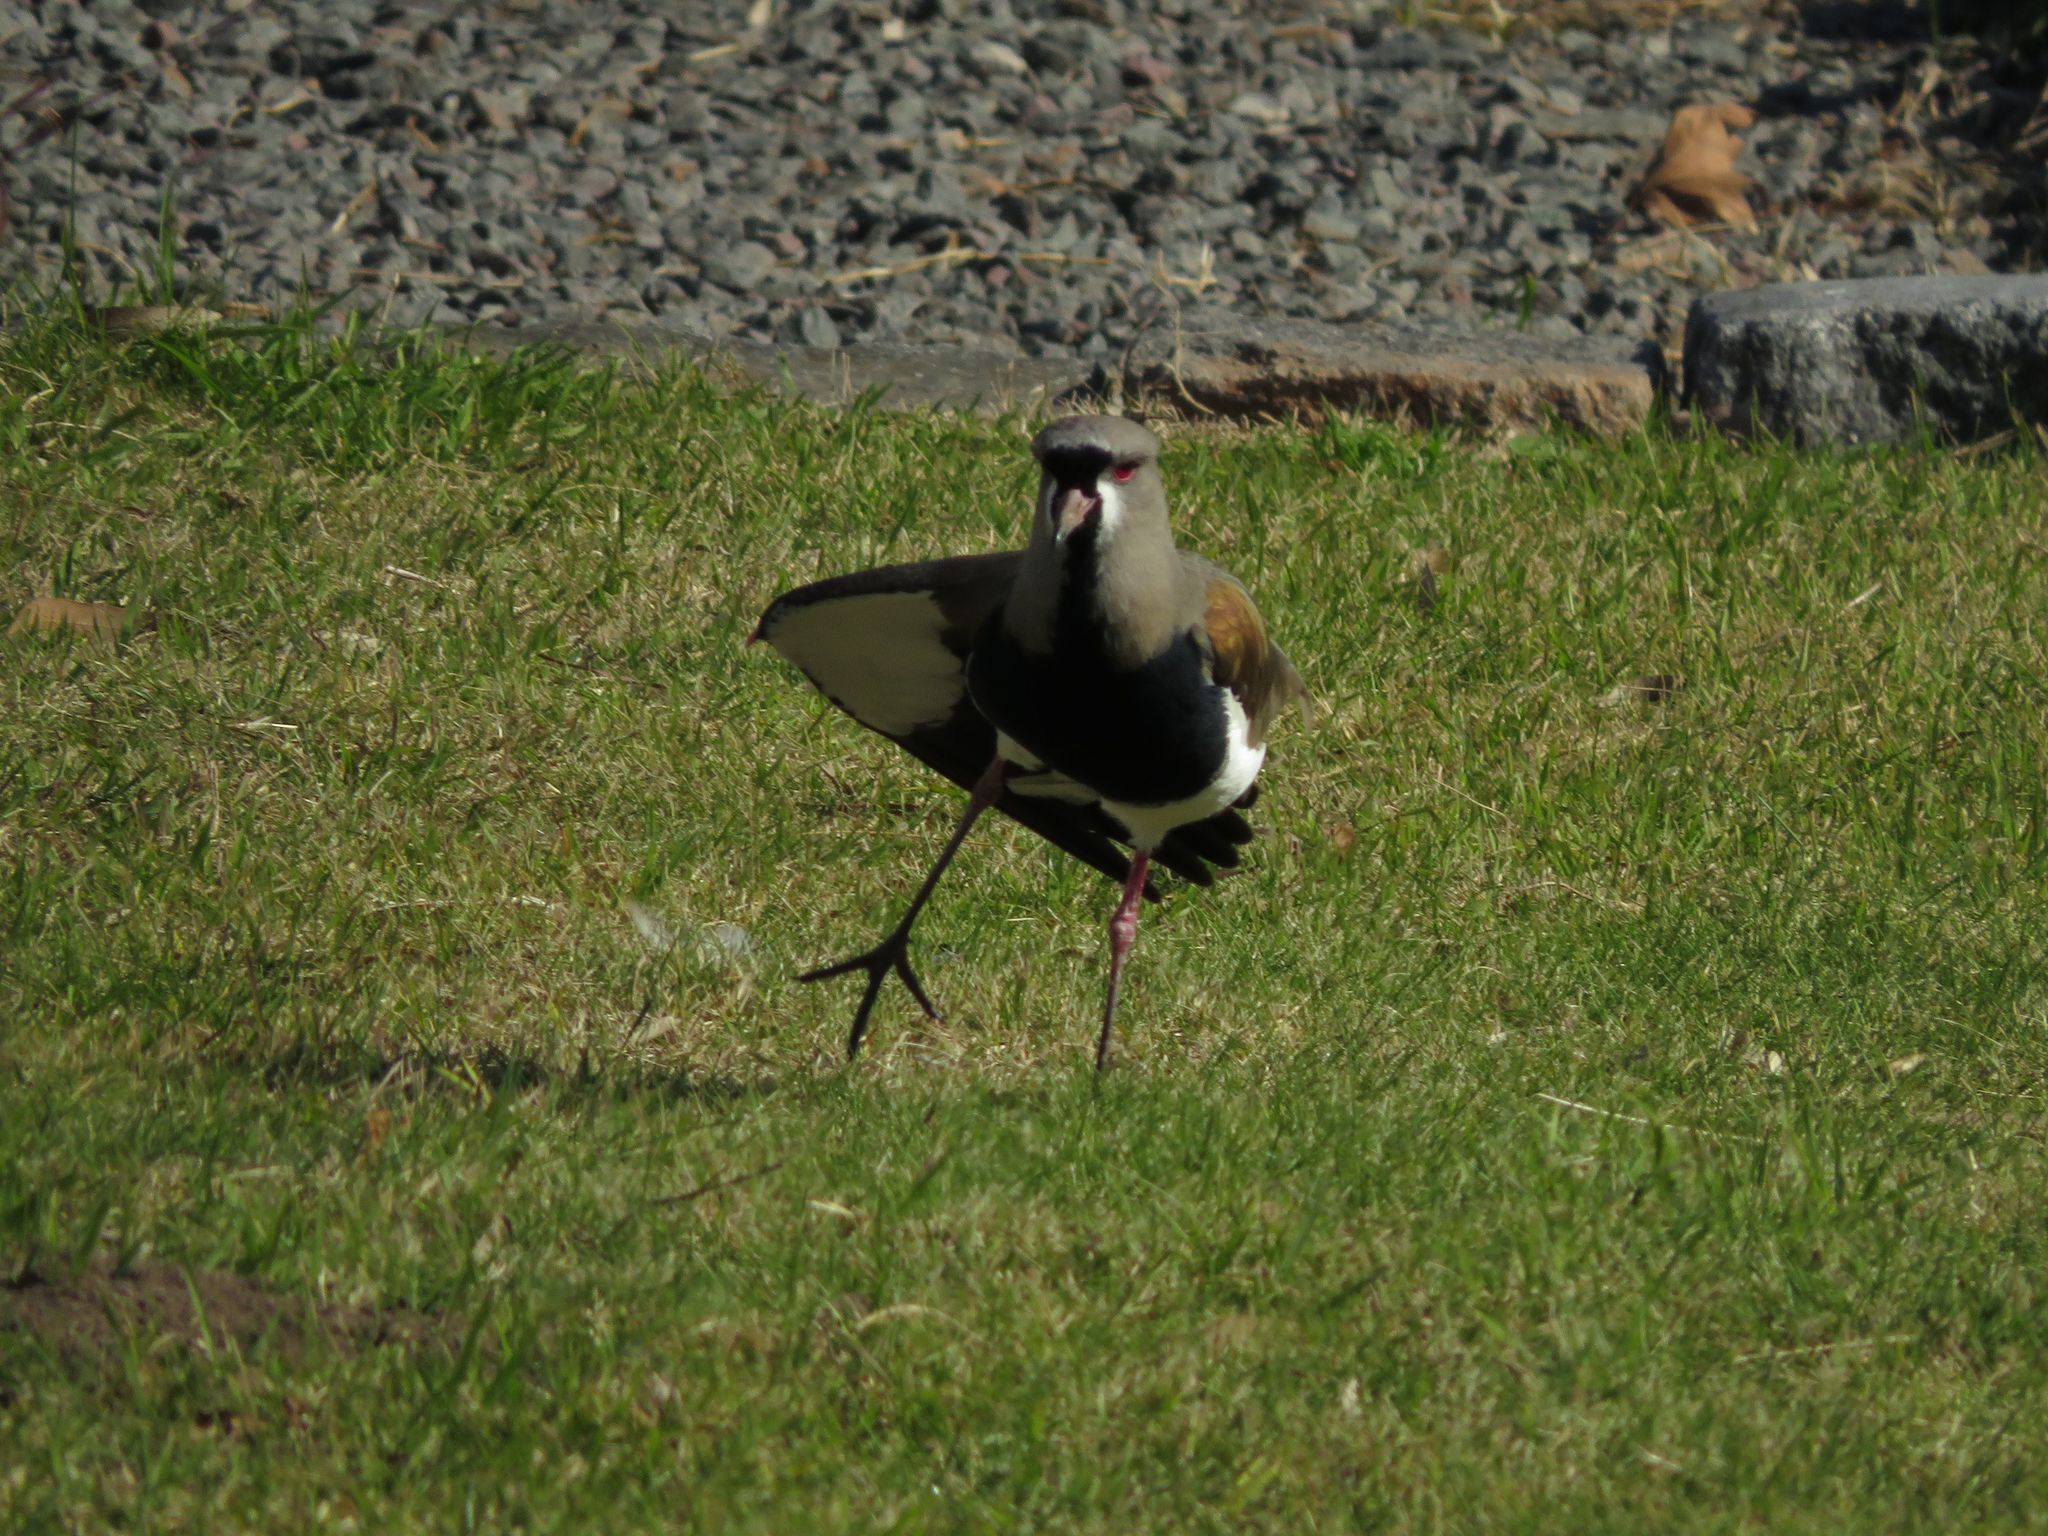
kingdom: Animalia
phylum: Chordata
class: Aves
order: Charadriiformes
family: Charadriidae
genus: Vanellus
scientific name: Vanellus chilensis
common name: Southern lapwing
